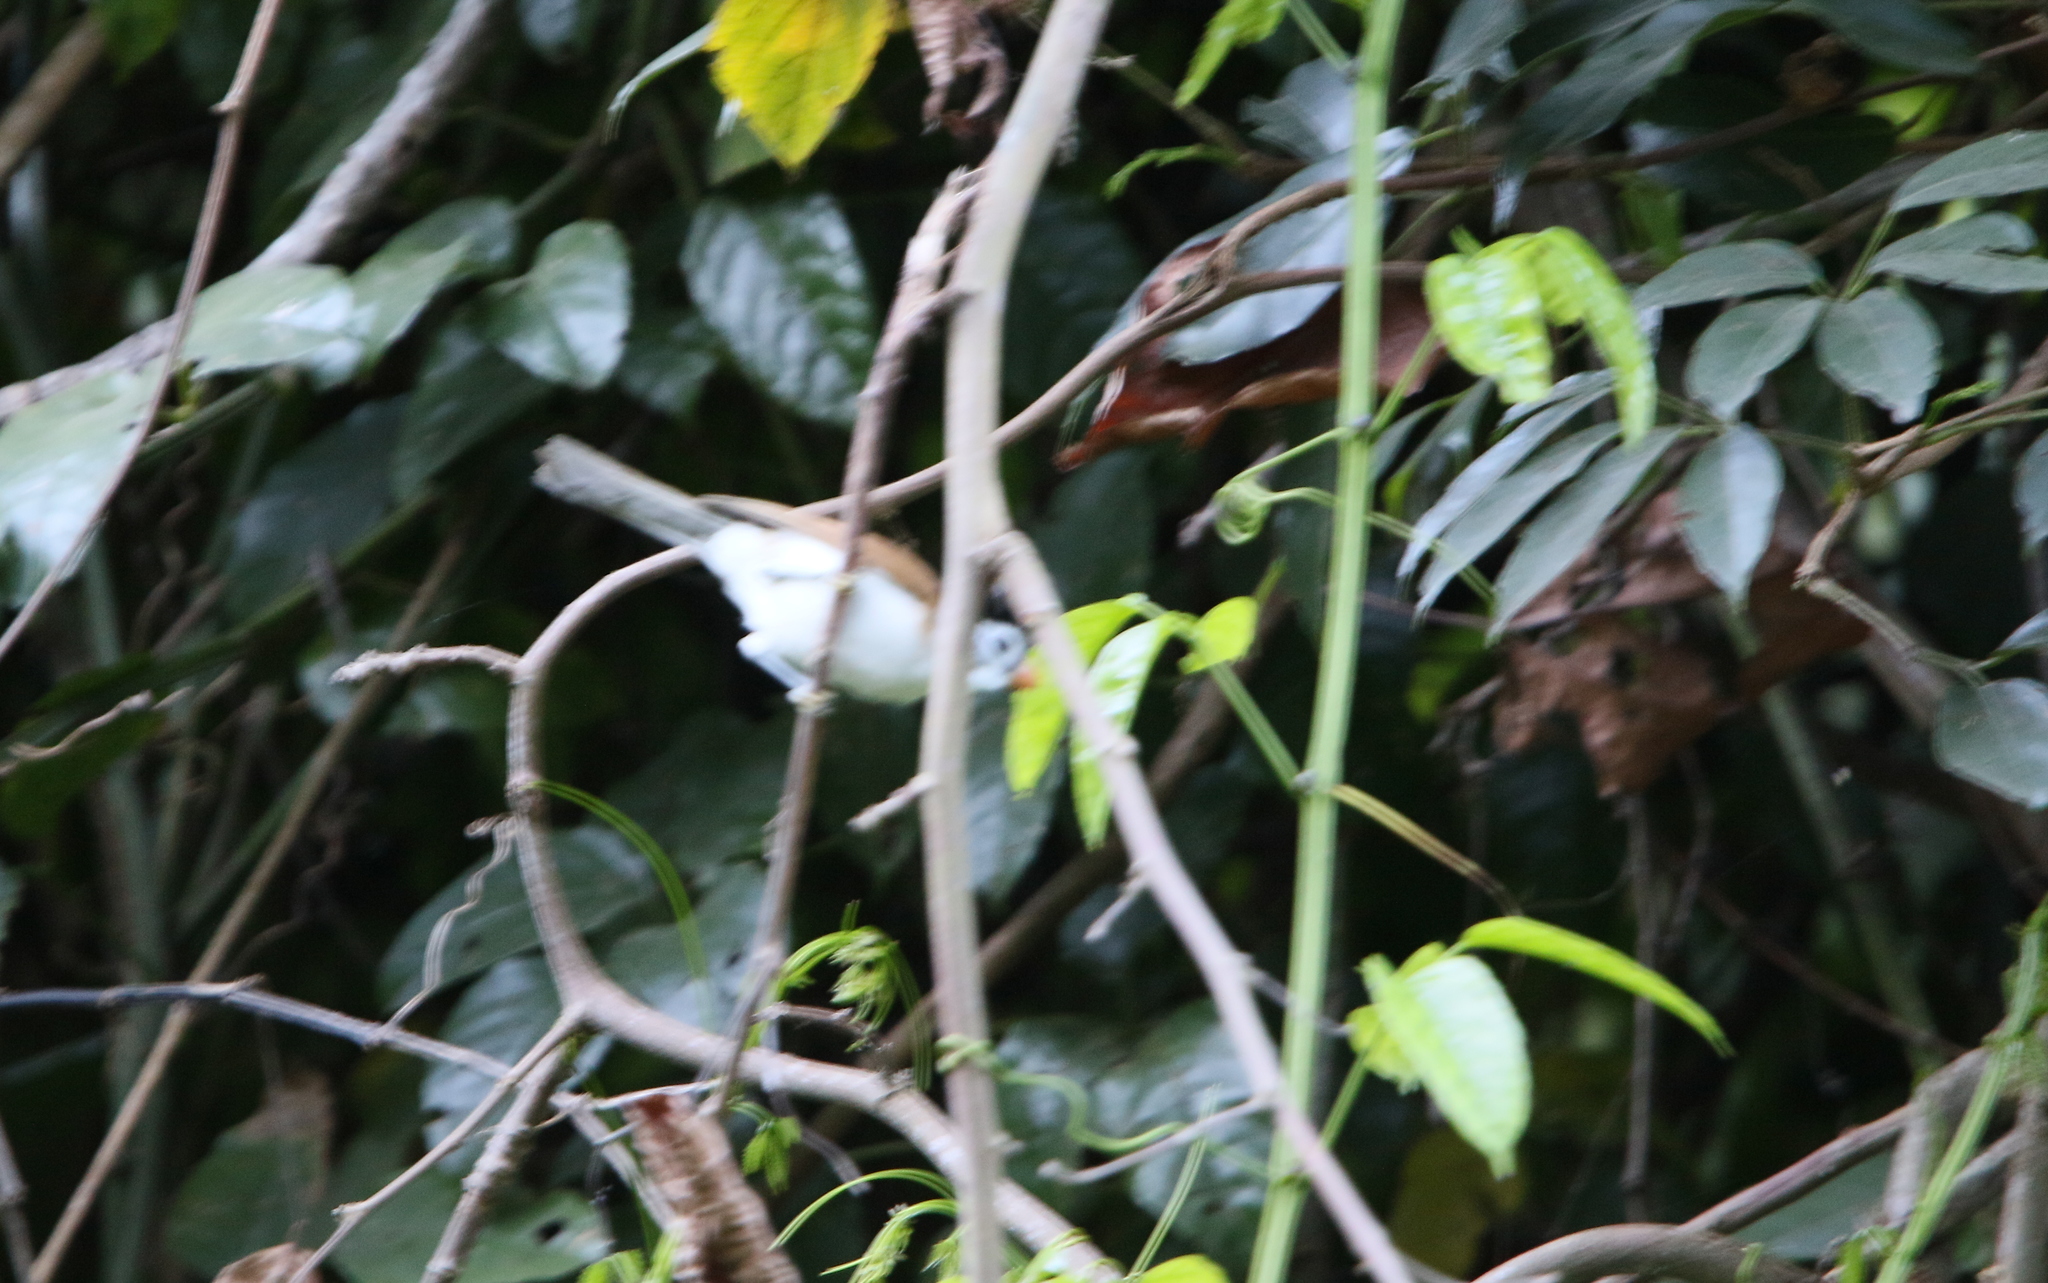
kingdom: Animalia
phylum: Chordata
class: Aves
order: Passeriformes
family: Sylviidae
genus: Psittiparus
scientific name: Psittiparus margaritae
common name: Black-headed parrotbill
